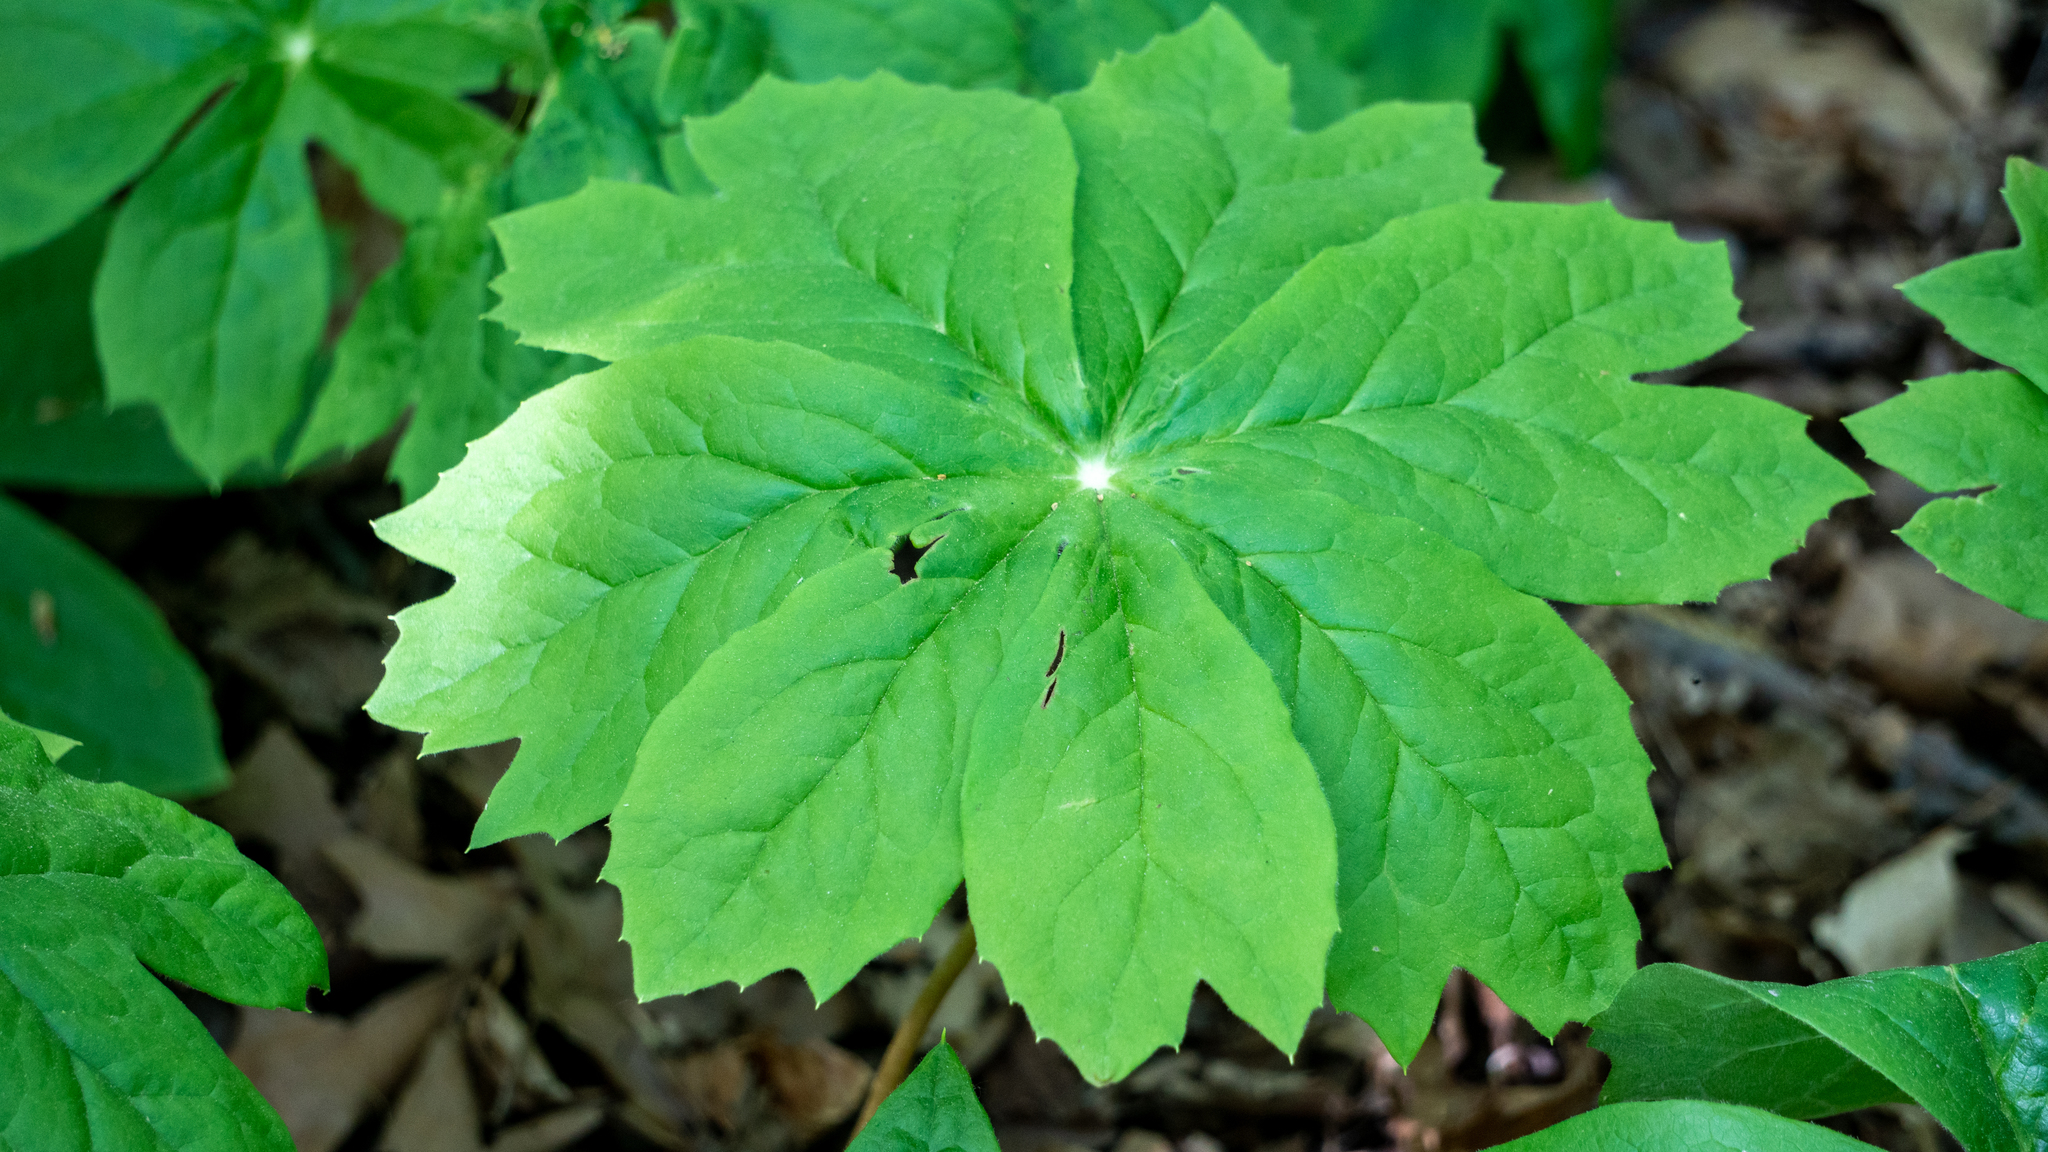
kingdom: Plantae
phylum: Tracheophyta
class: Magnoliopsida
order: Ranunculales
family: Berberidaceae
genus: Podophyllum
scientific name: Podophyllum peltatum
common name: Wild mandrake
